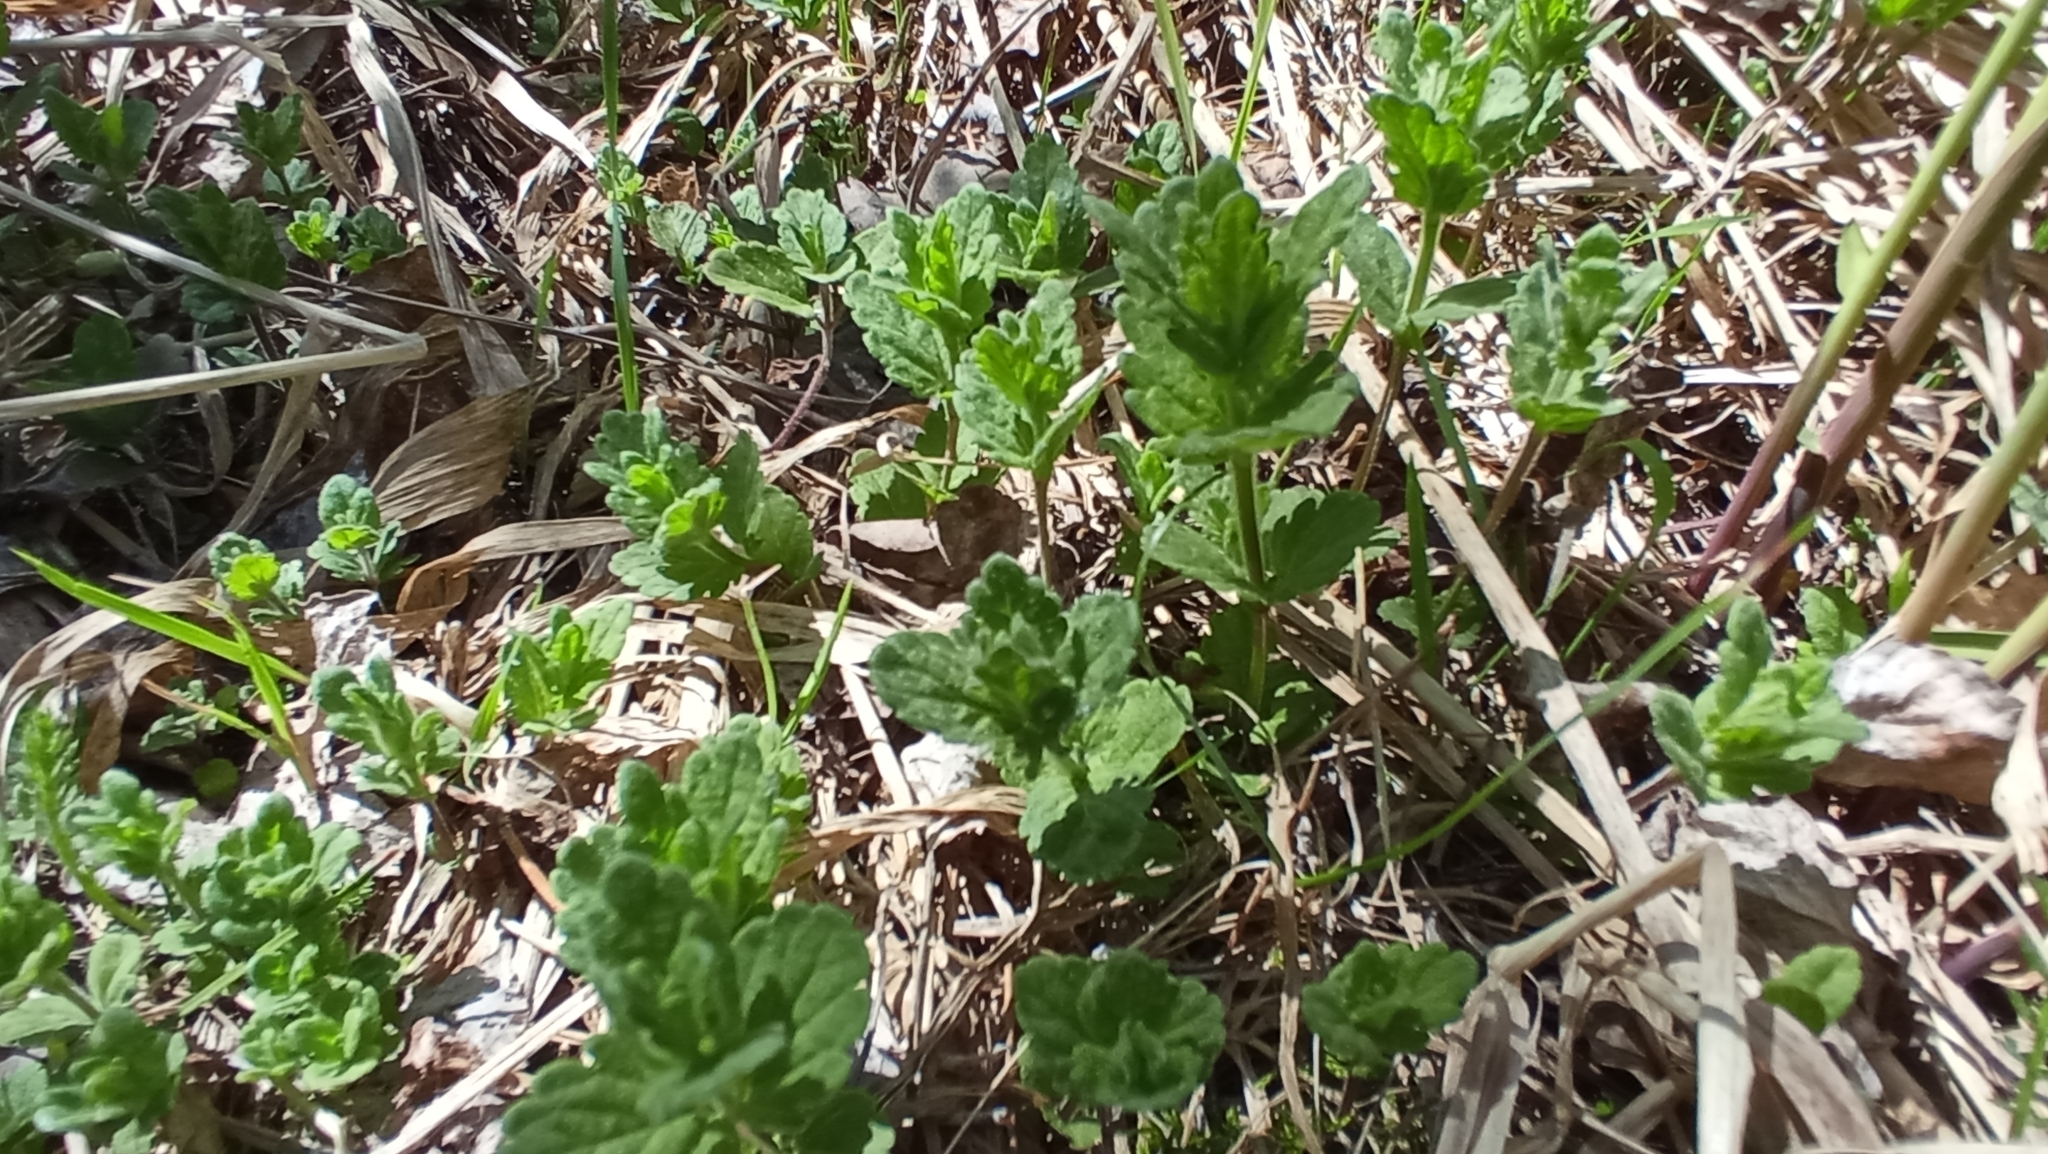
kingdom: Plantae
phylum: Tracheophyta
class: Magnoliopsida
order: Lamiales
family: Plantaginaceae
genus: Veronica
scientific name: Veronica chamaedrys
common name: Germander speedwell
